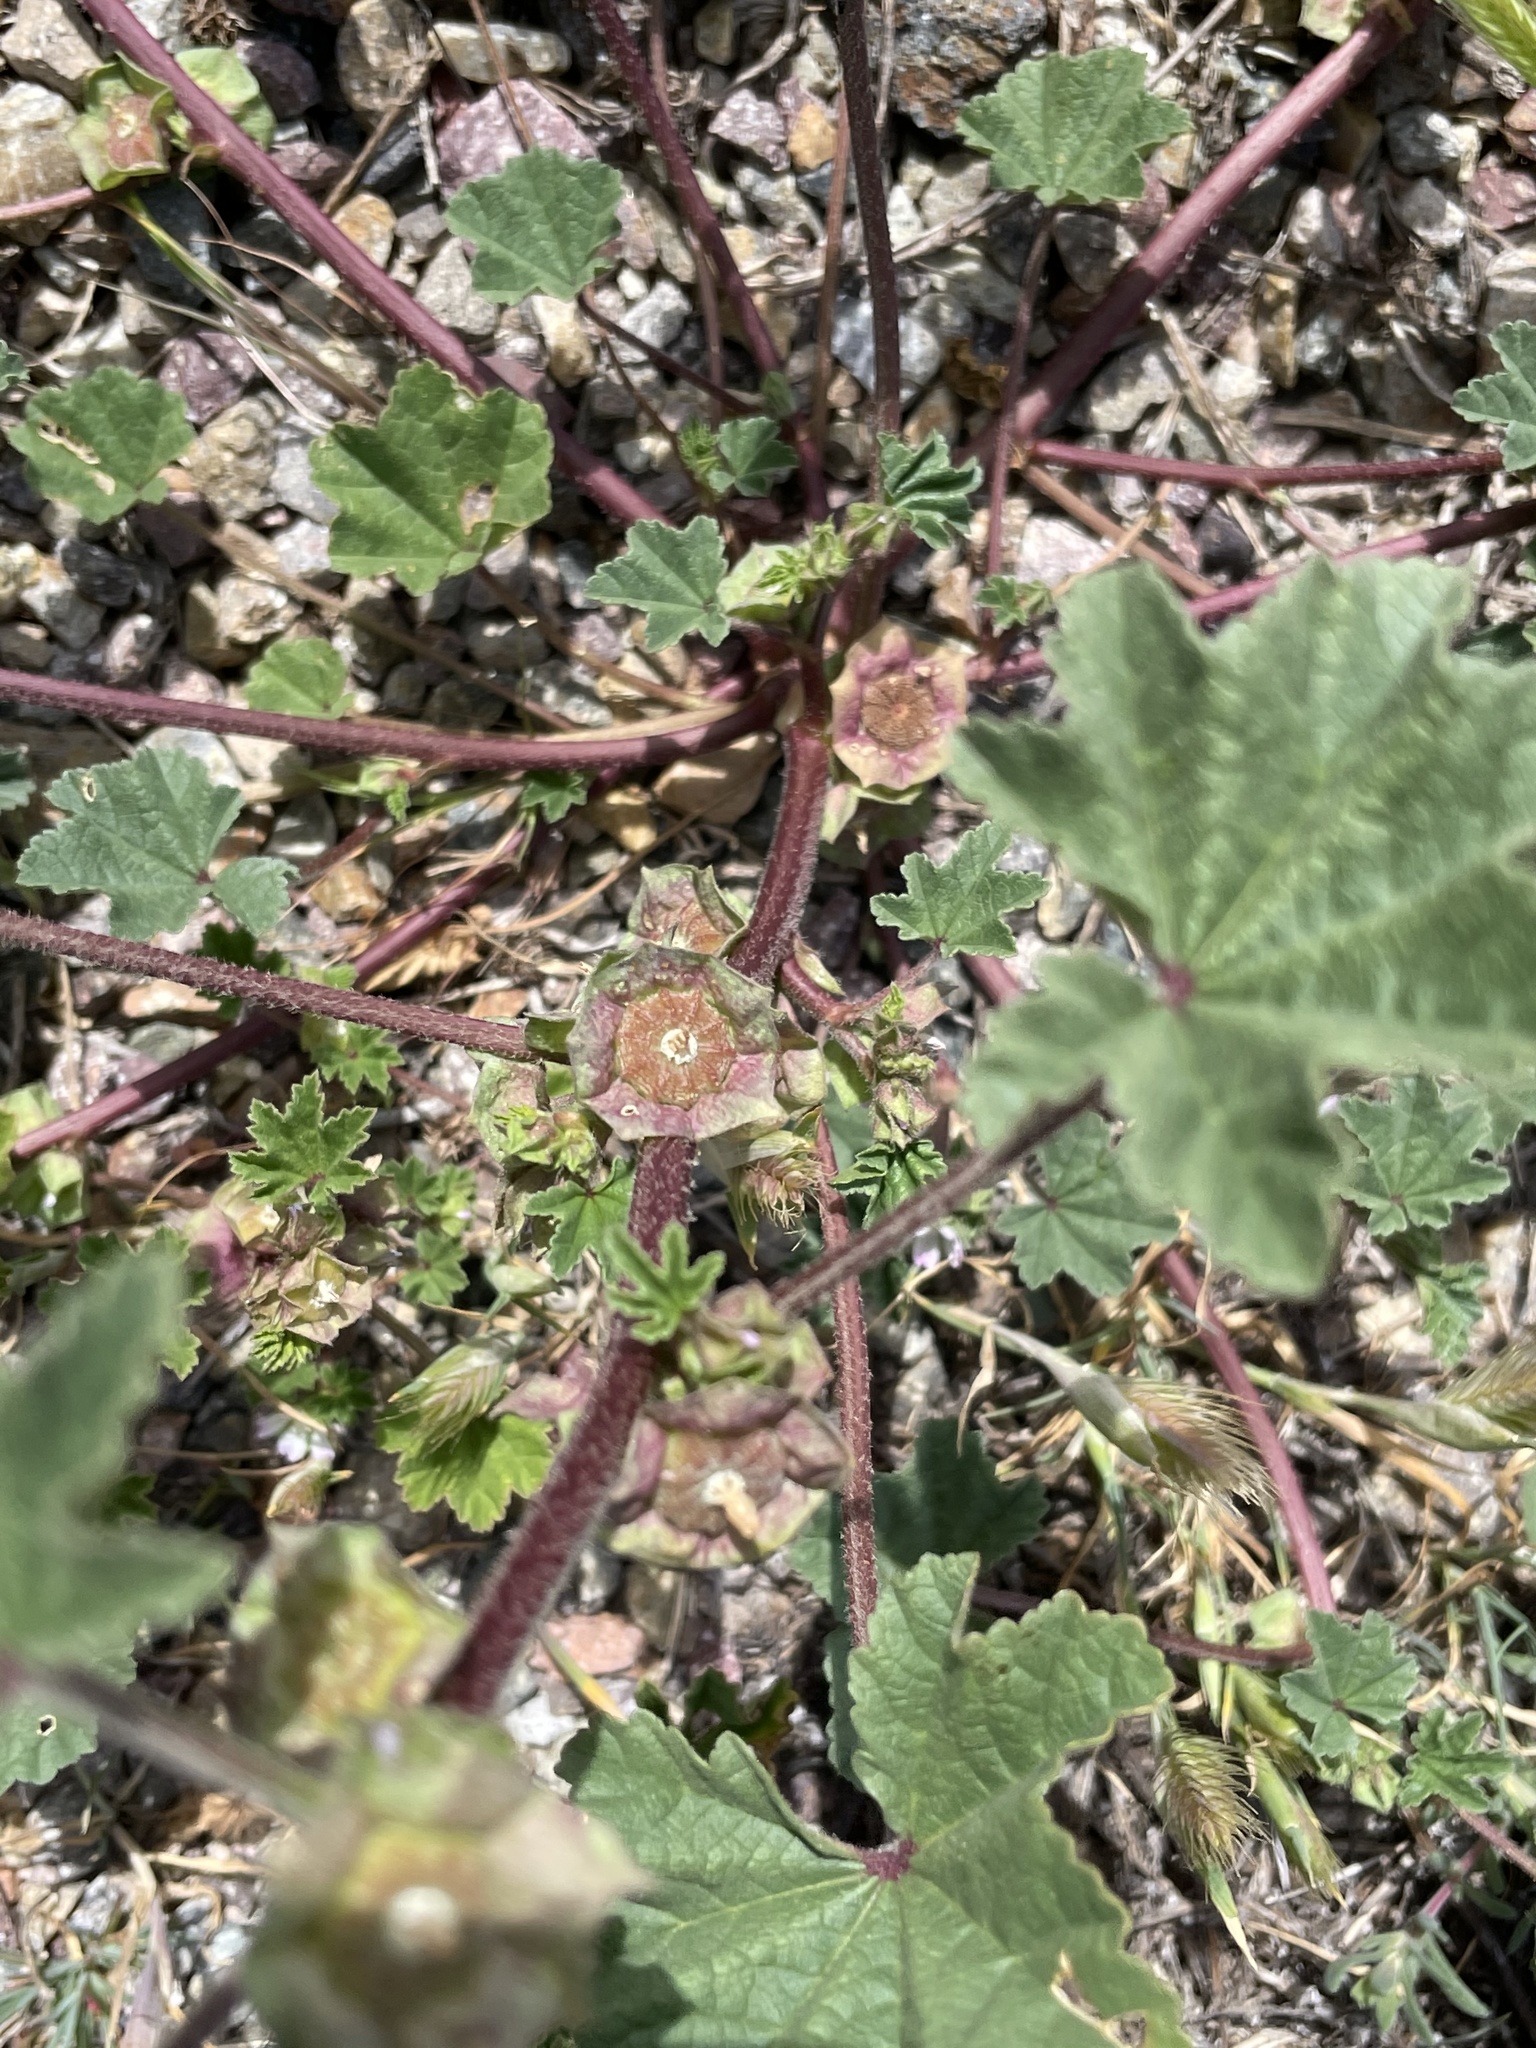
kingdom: Plantae
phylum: Tracheophyta
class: Magnoliopsida
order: Malvales
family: Malvaceae
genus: Malva
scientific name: Malva parviflora
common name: Least mallow
